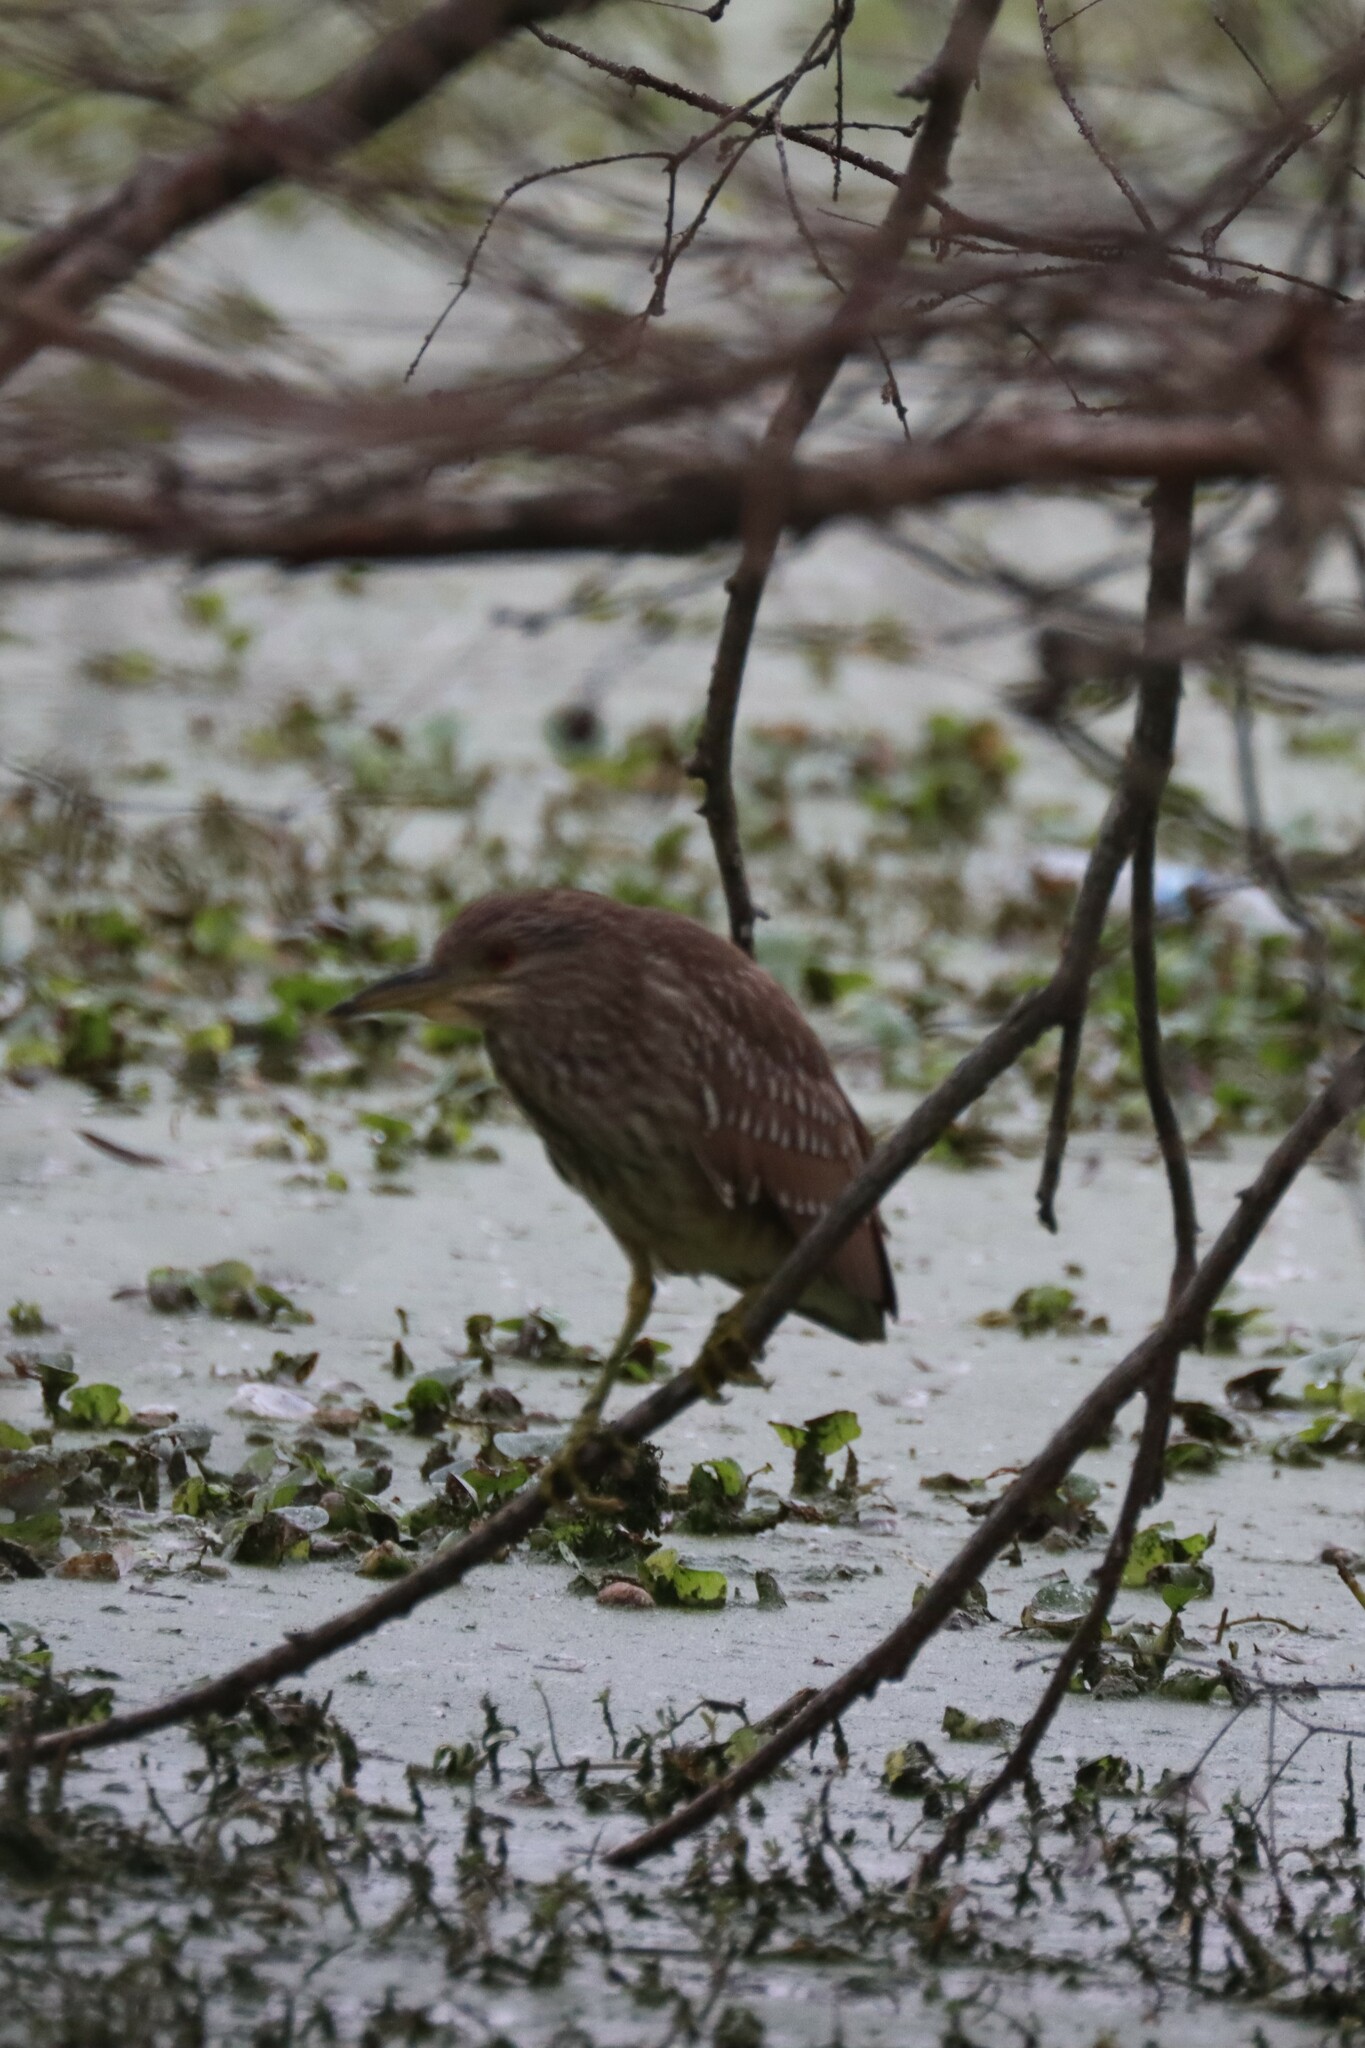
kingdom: Animalia
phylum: Chordata
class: Aves
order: Pelecaniformes
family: Ardeidae
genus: Nycticorax
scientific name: Nycticorax nycticorax
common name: Black-crowned night heron
